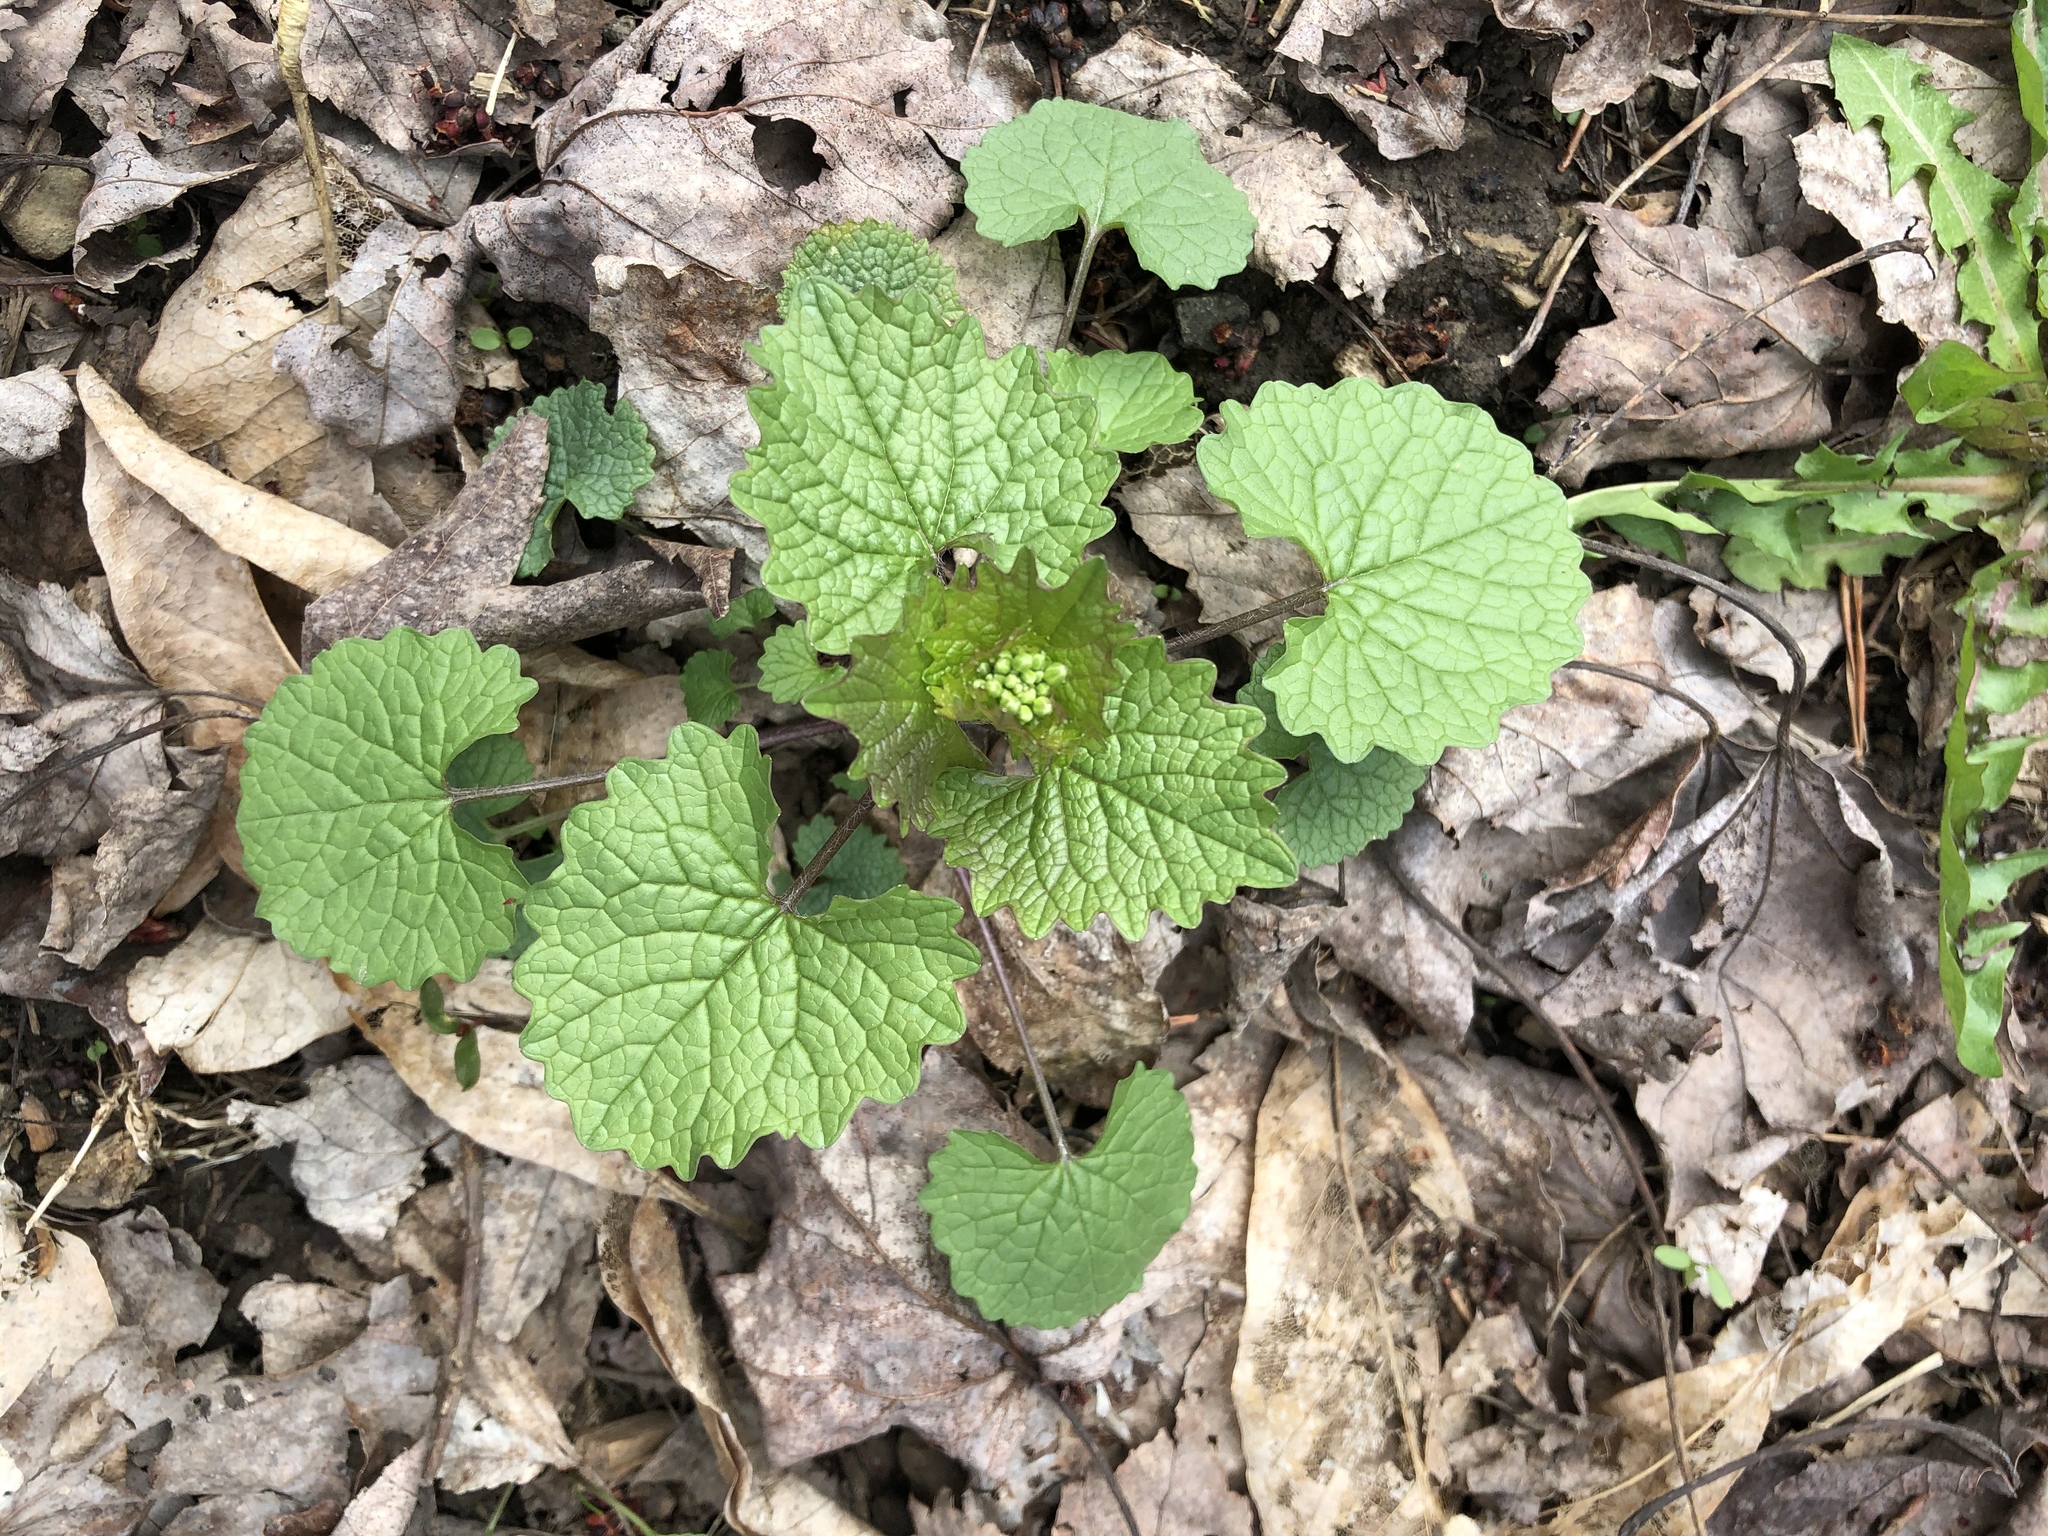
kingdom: Plantae
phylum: Tracheophyta
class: Magnoliopsida
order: Brassicales
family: Brassicaceae
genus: Alliaria
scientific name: Alliaria petiolata
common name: Garlic mustard
